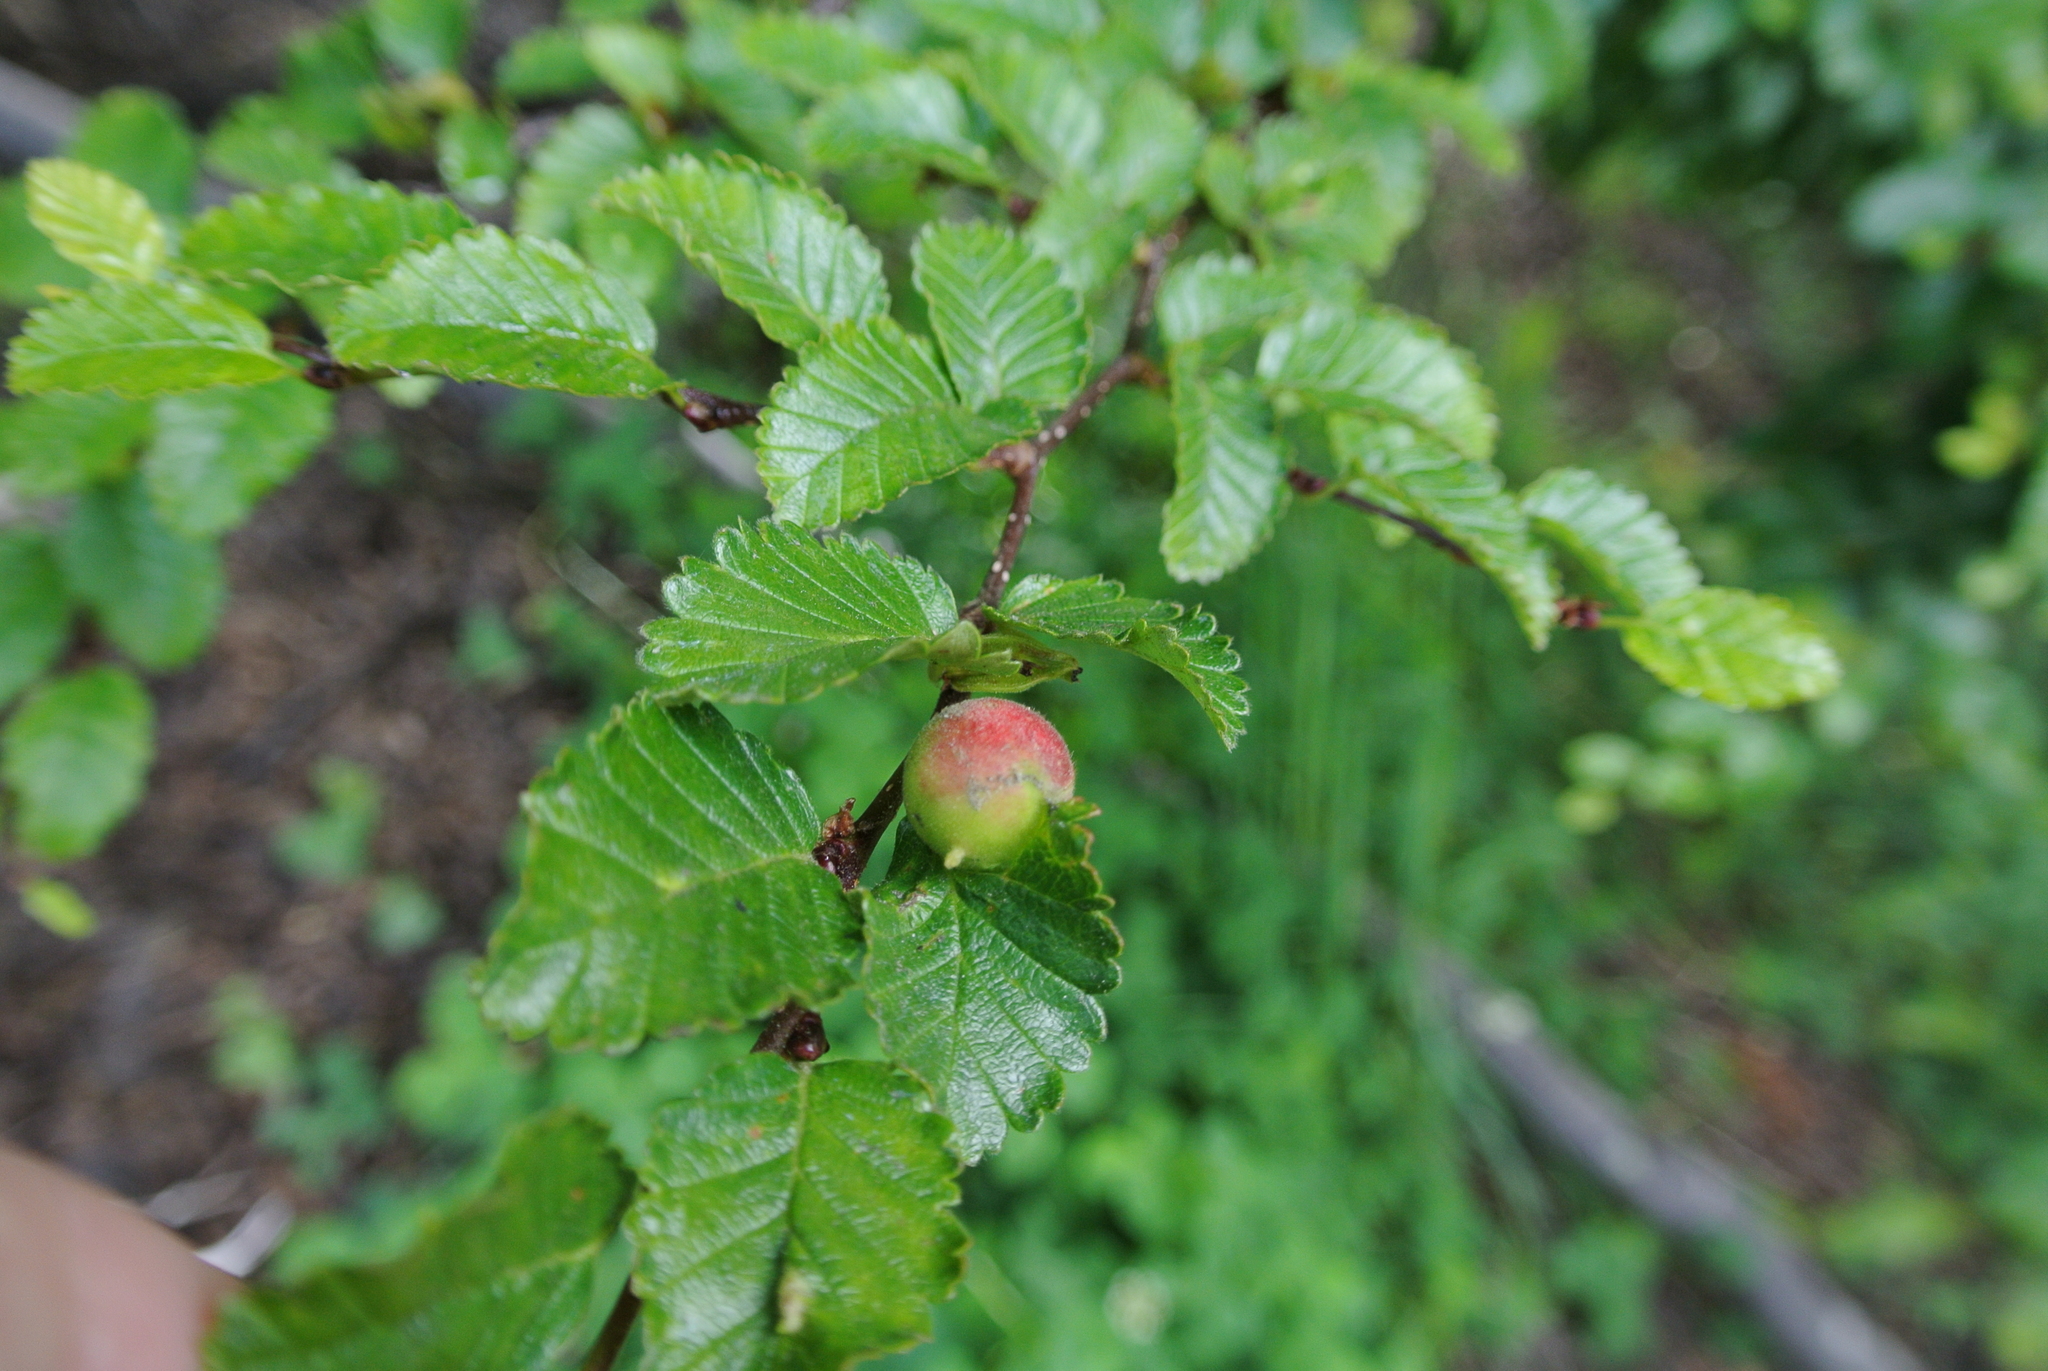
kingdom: Plantae
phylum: Tracheophyta
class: Magnoliopsida
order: Fagales
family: Nothofagaceae
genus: Nothofagus
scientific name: Nothofagus pumilio
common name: Lenga beech
